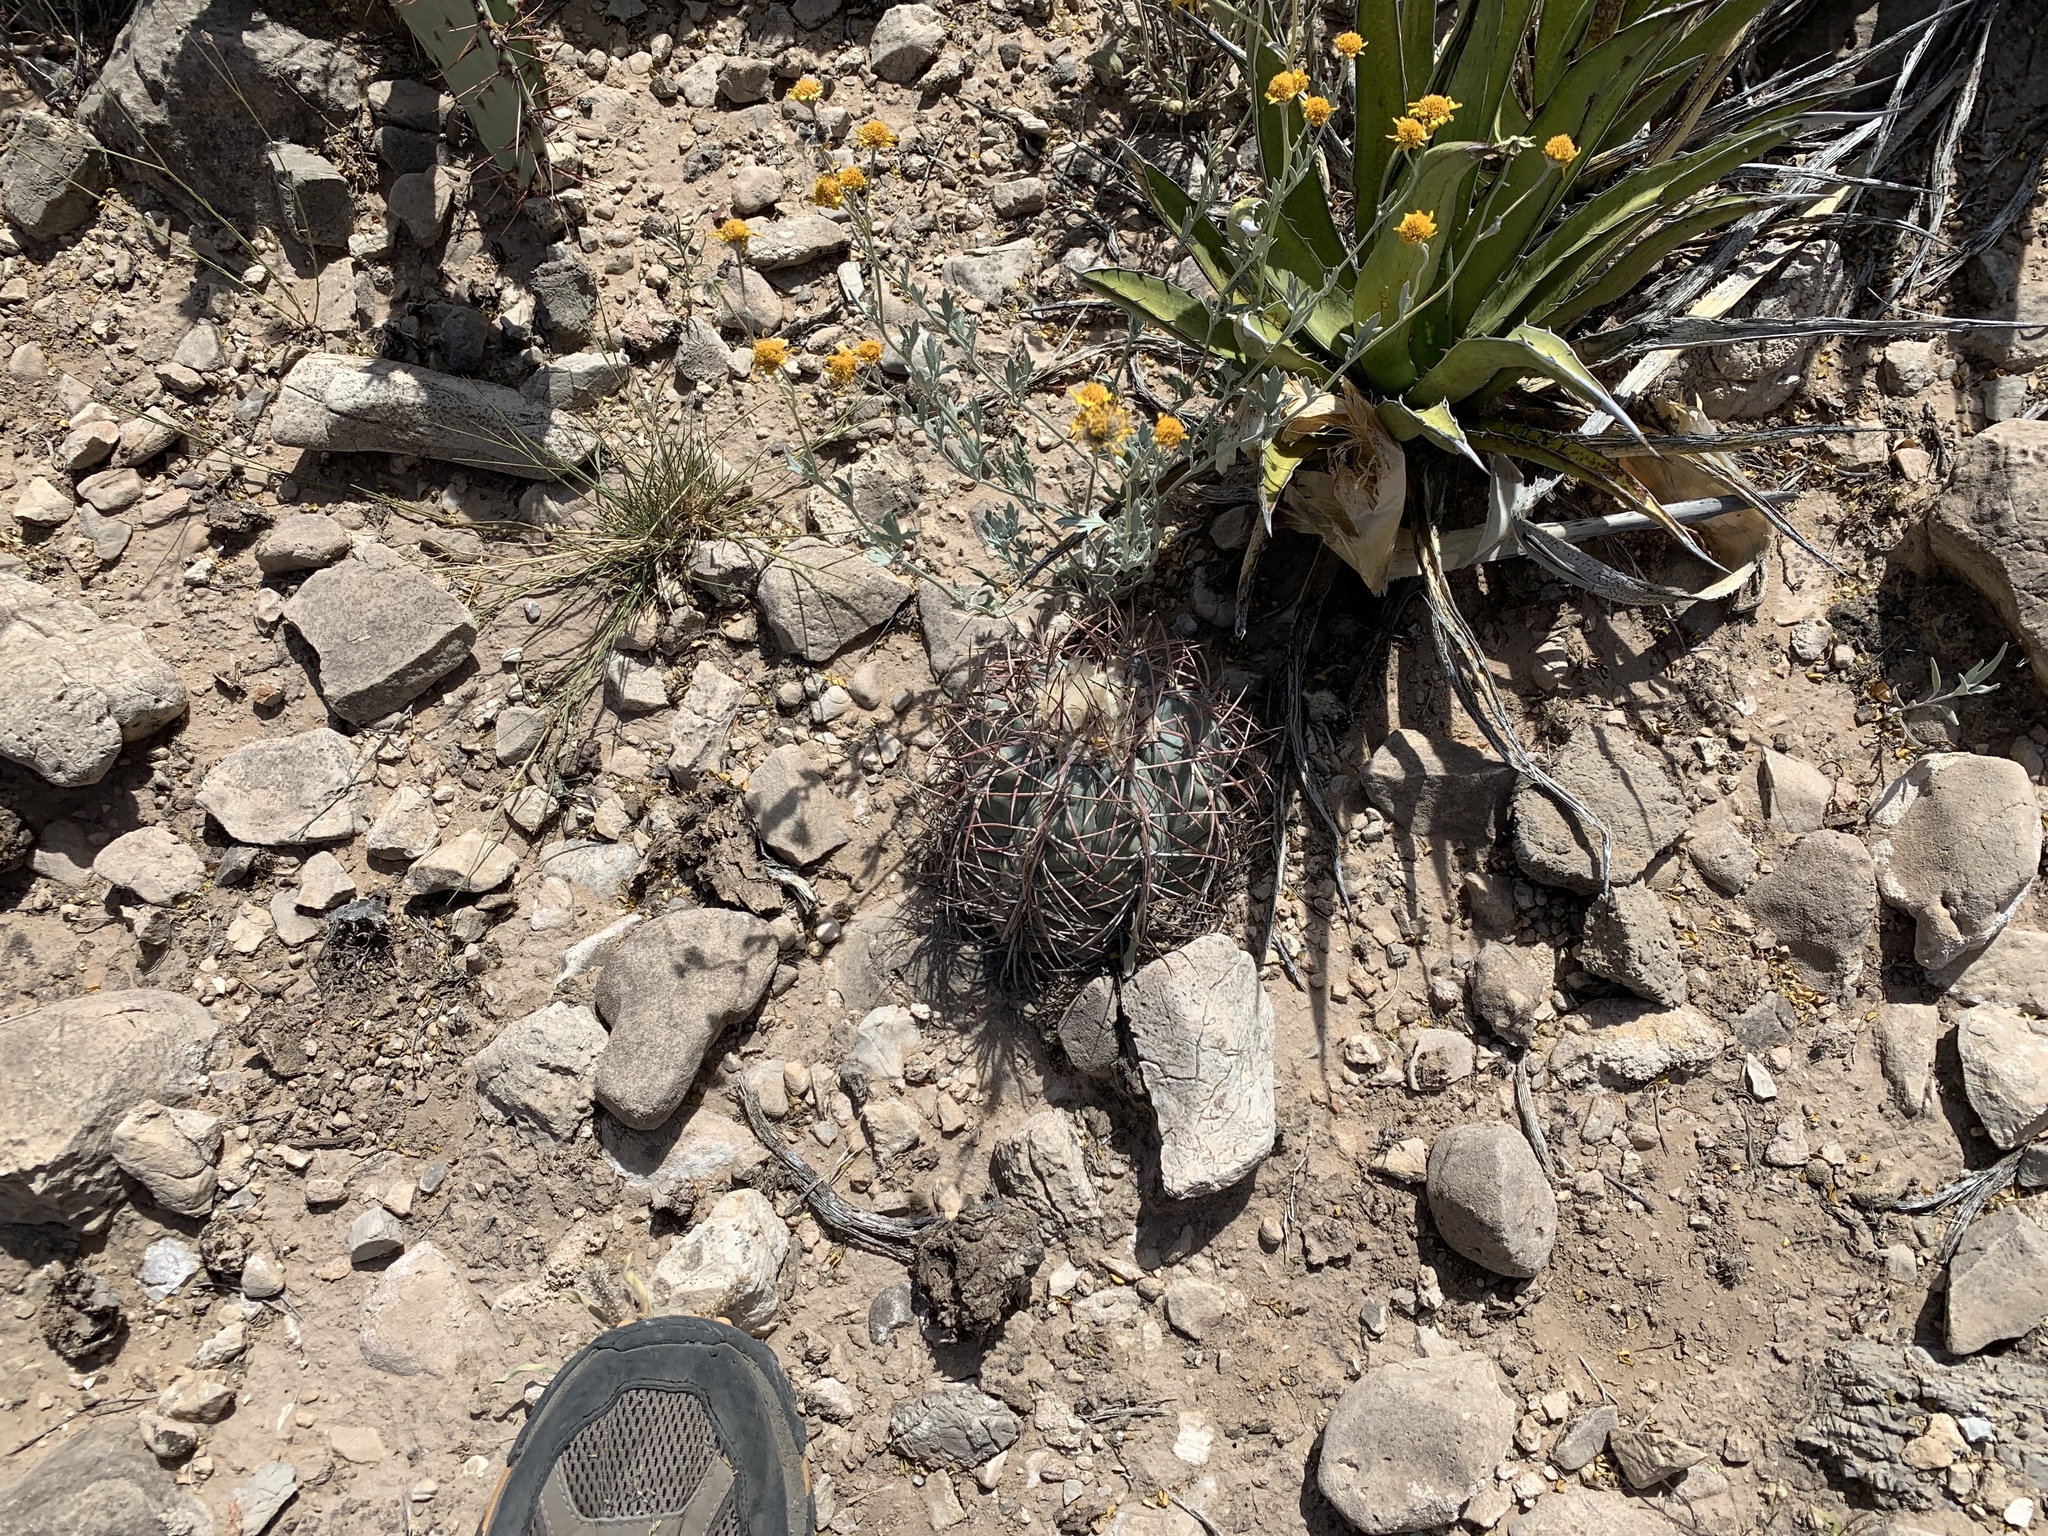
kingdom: Plantae
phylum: Tracheophyta
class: Magnoliopsida
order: Caryophyllales
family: Cactaceae
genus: Echinocactus
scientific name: Echinocactus horizonthalonius
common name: Devilshead
